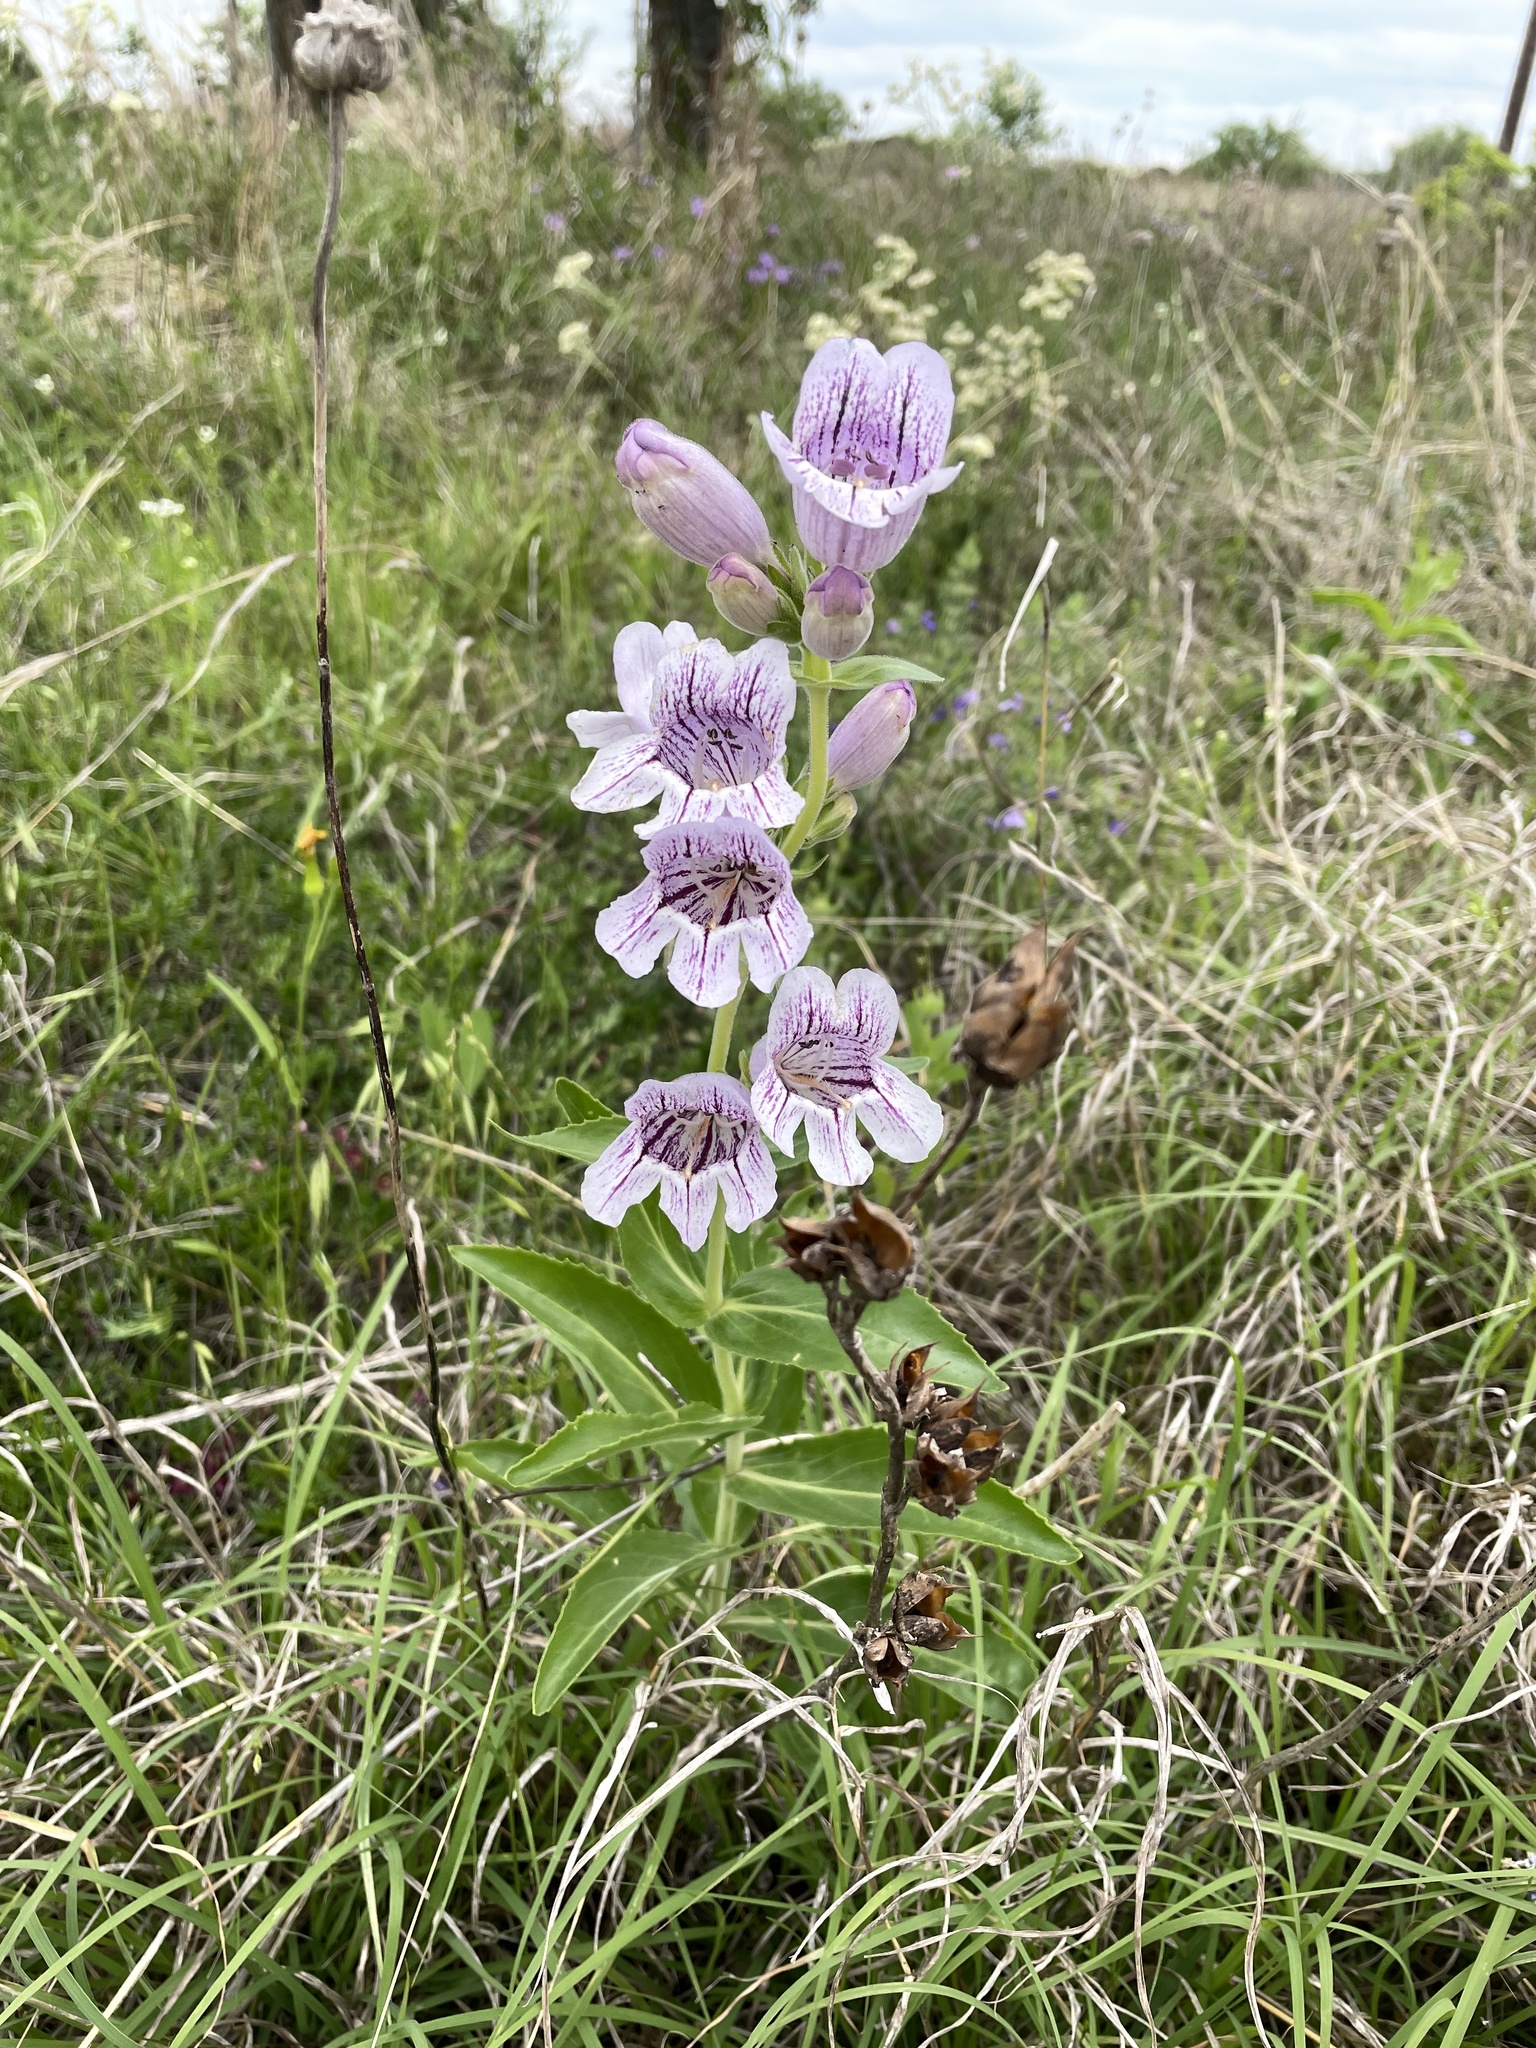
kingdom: Plantae
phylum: Tracheophyta
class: Magnoliopsida
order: Lamiales
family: Plantaginaceae
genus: Penstemon
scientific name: Penstemon cobaea
